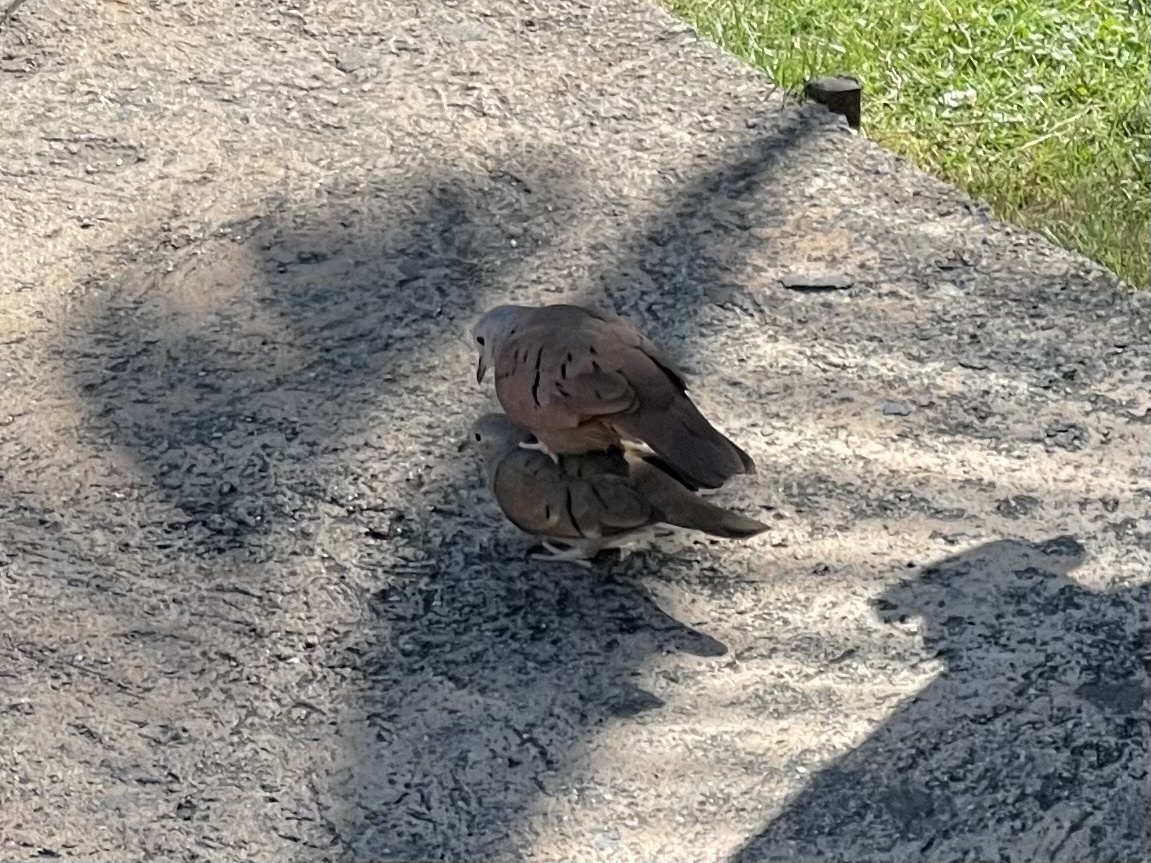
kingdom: Animalia
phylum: Chordata
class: Aves
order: Columbiformes
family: Columbidae
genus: Columbina
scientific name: Columbina talpacoti
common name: Ruddy ground dove
